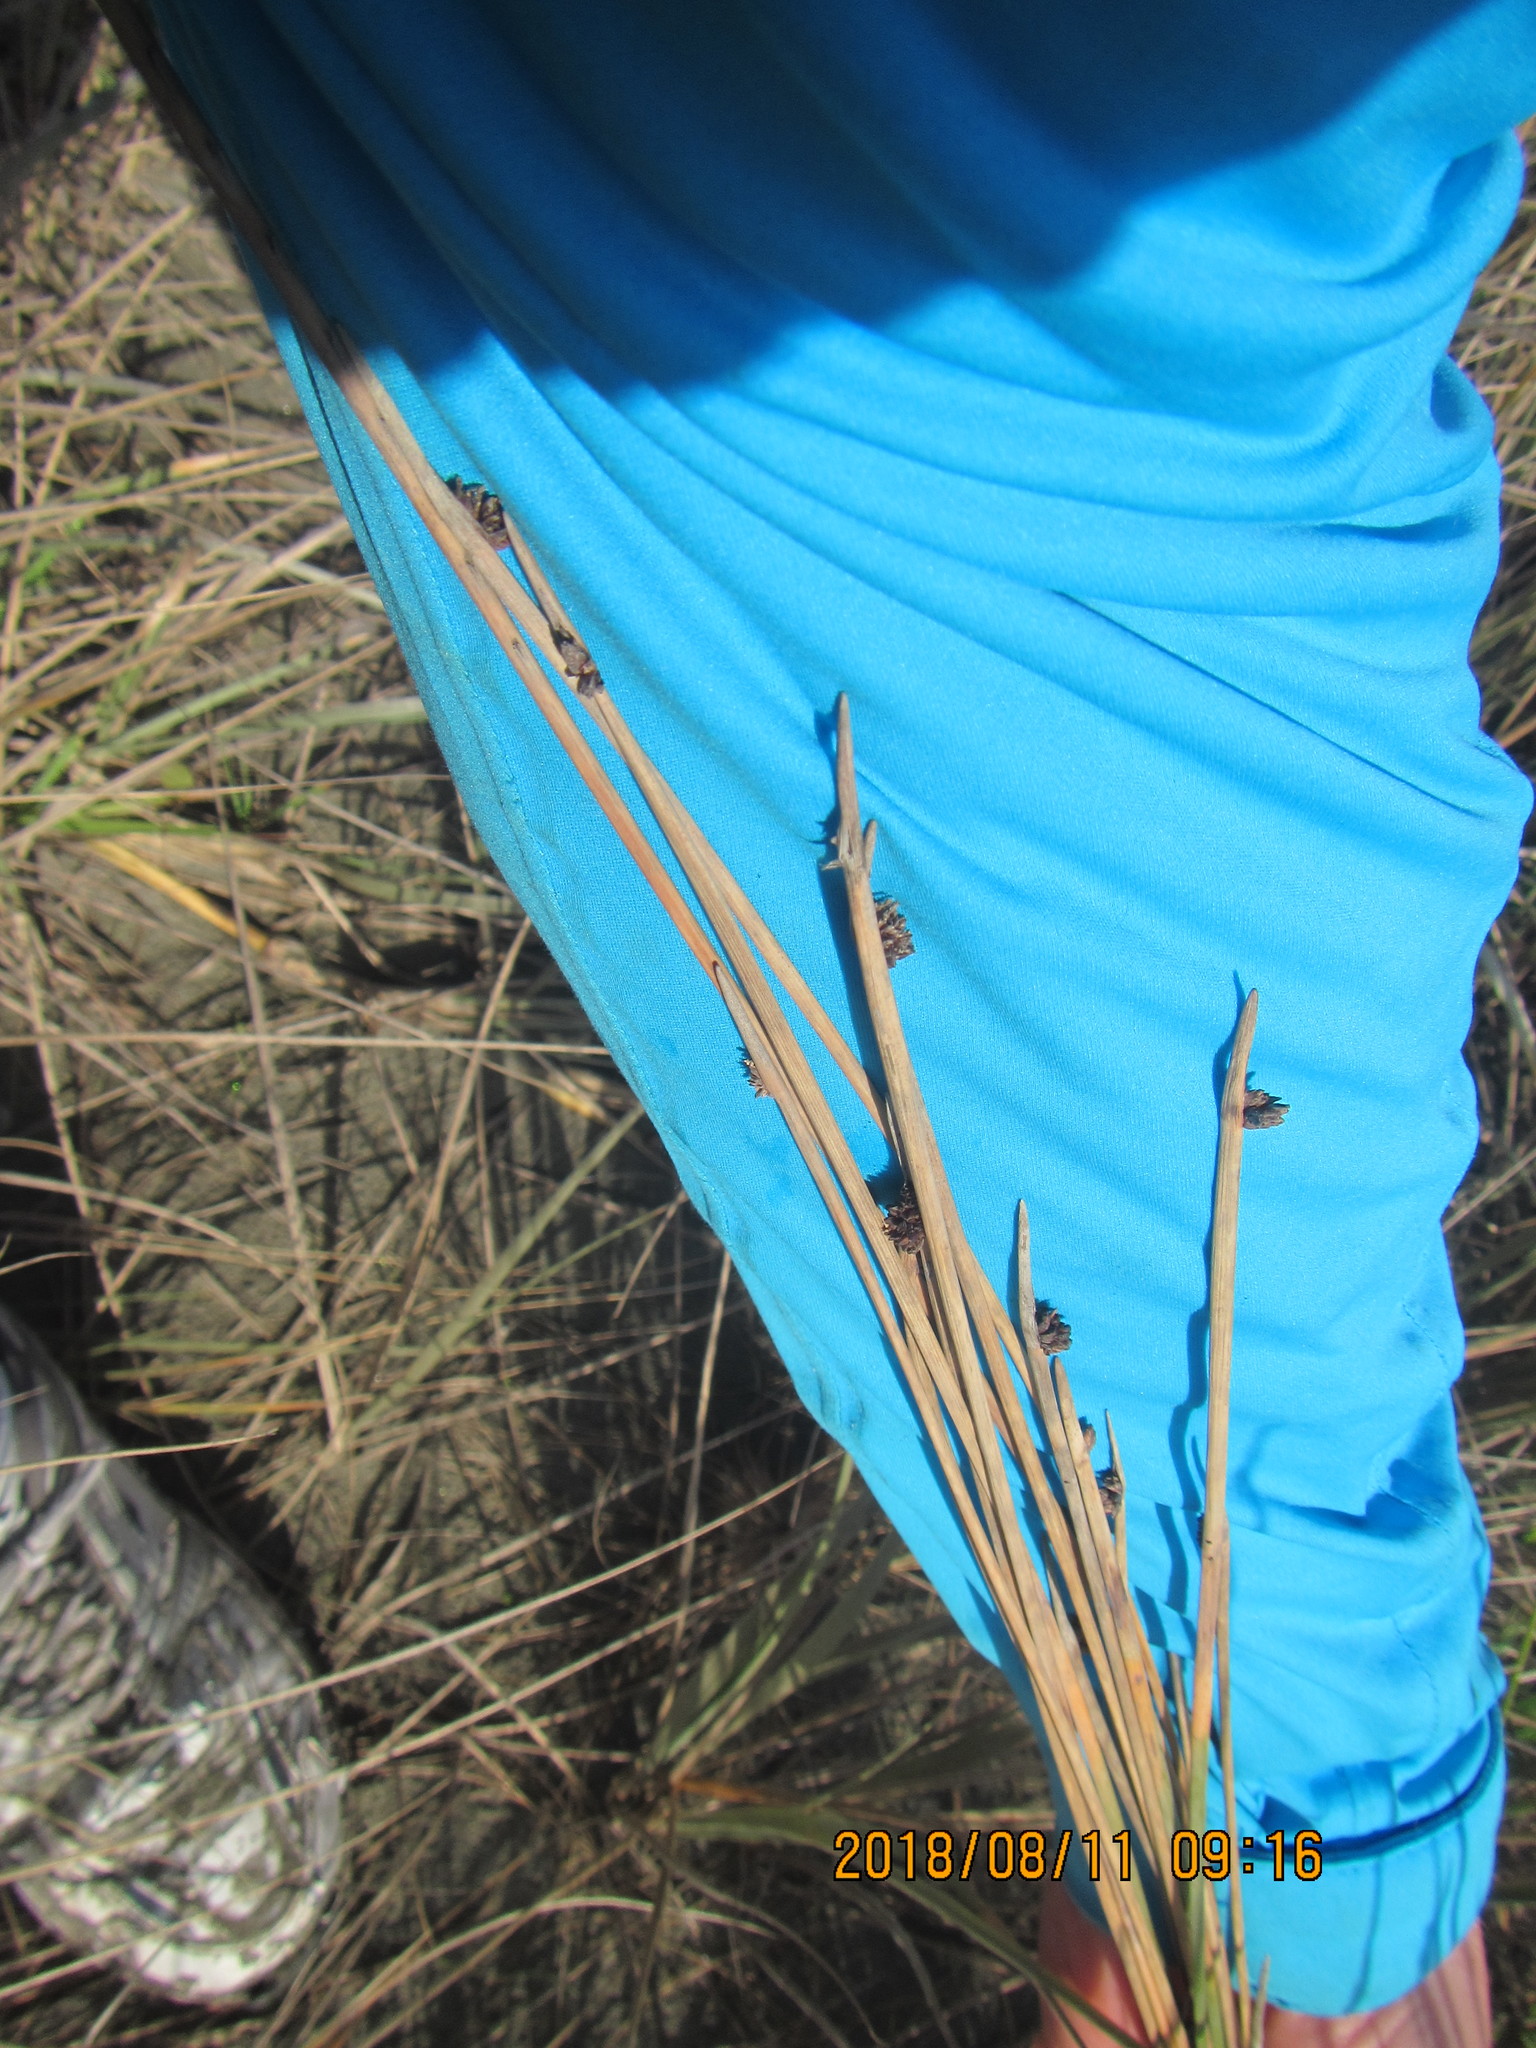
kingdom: Plantae
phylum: Tracheophyta
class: Liliopsida
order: Poales
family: Cyperaceae
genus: Ficinia
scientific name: Ficinia nodosa
